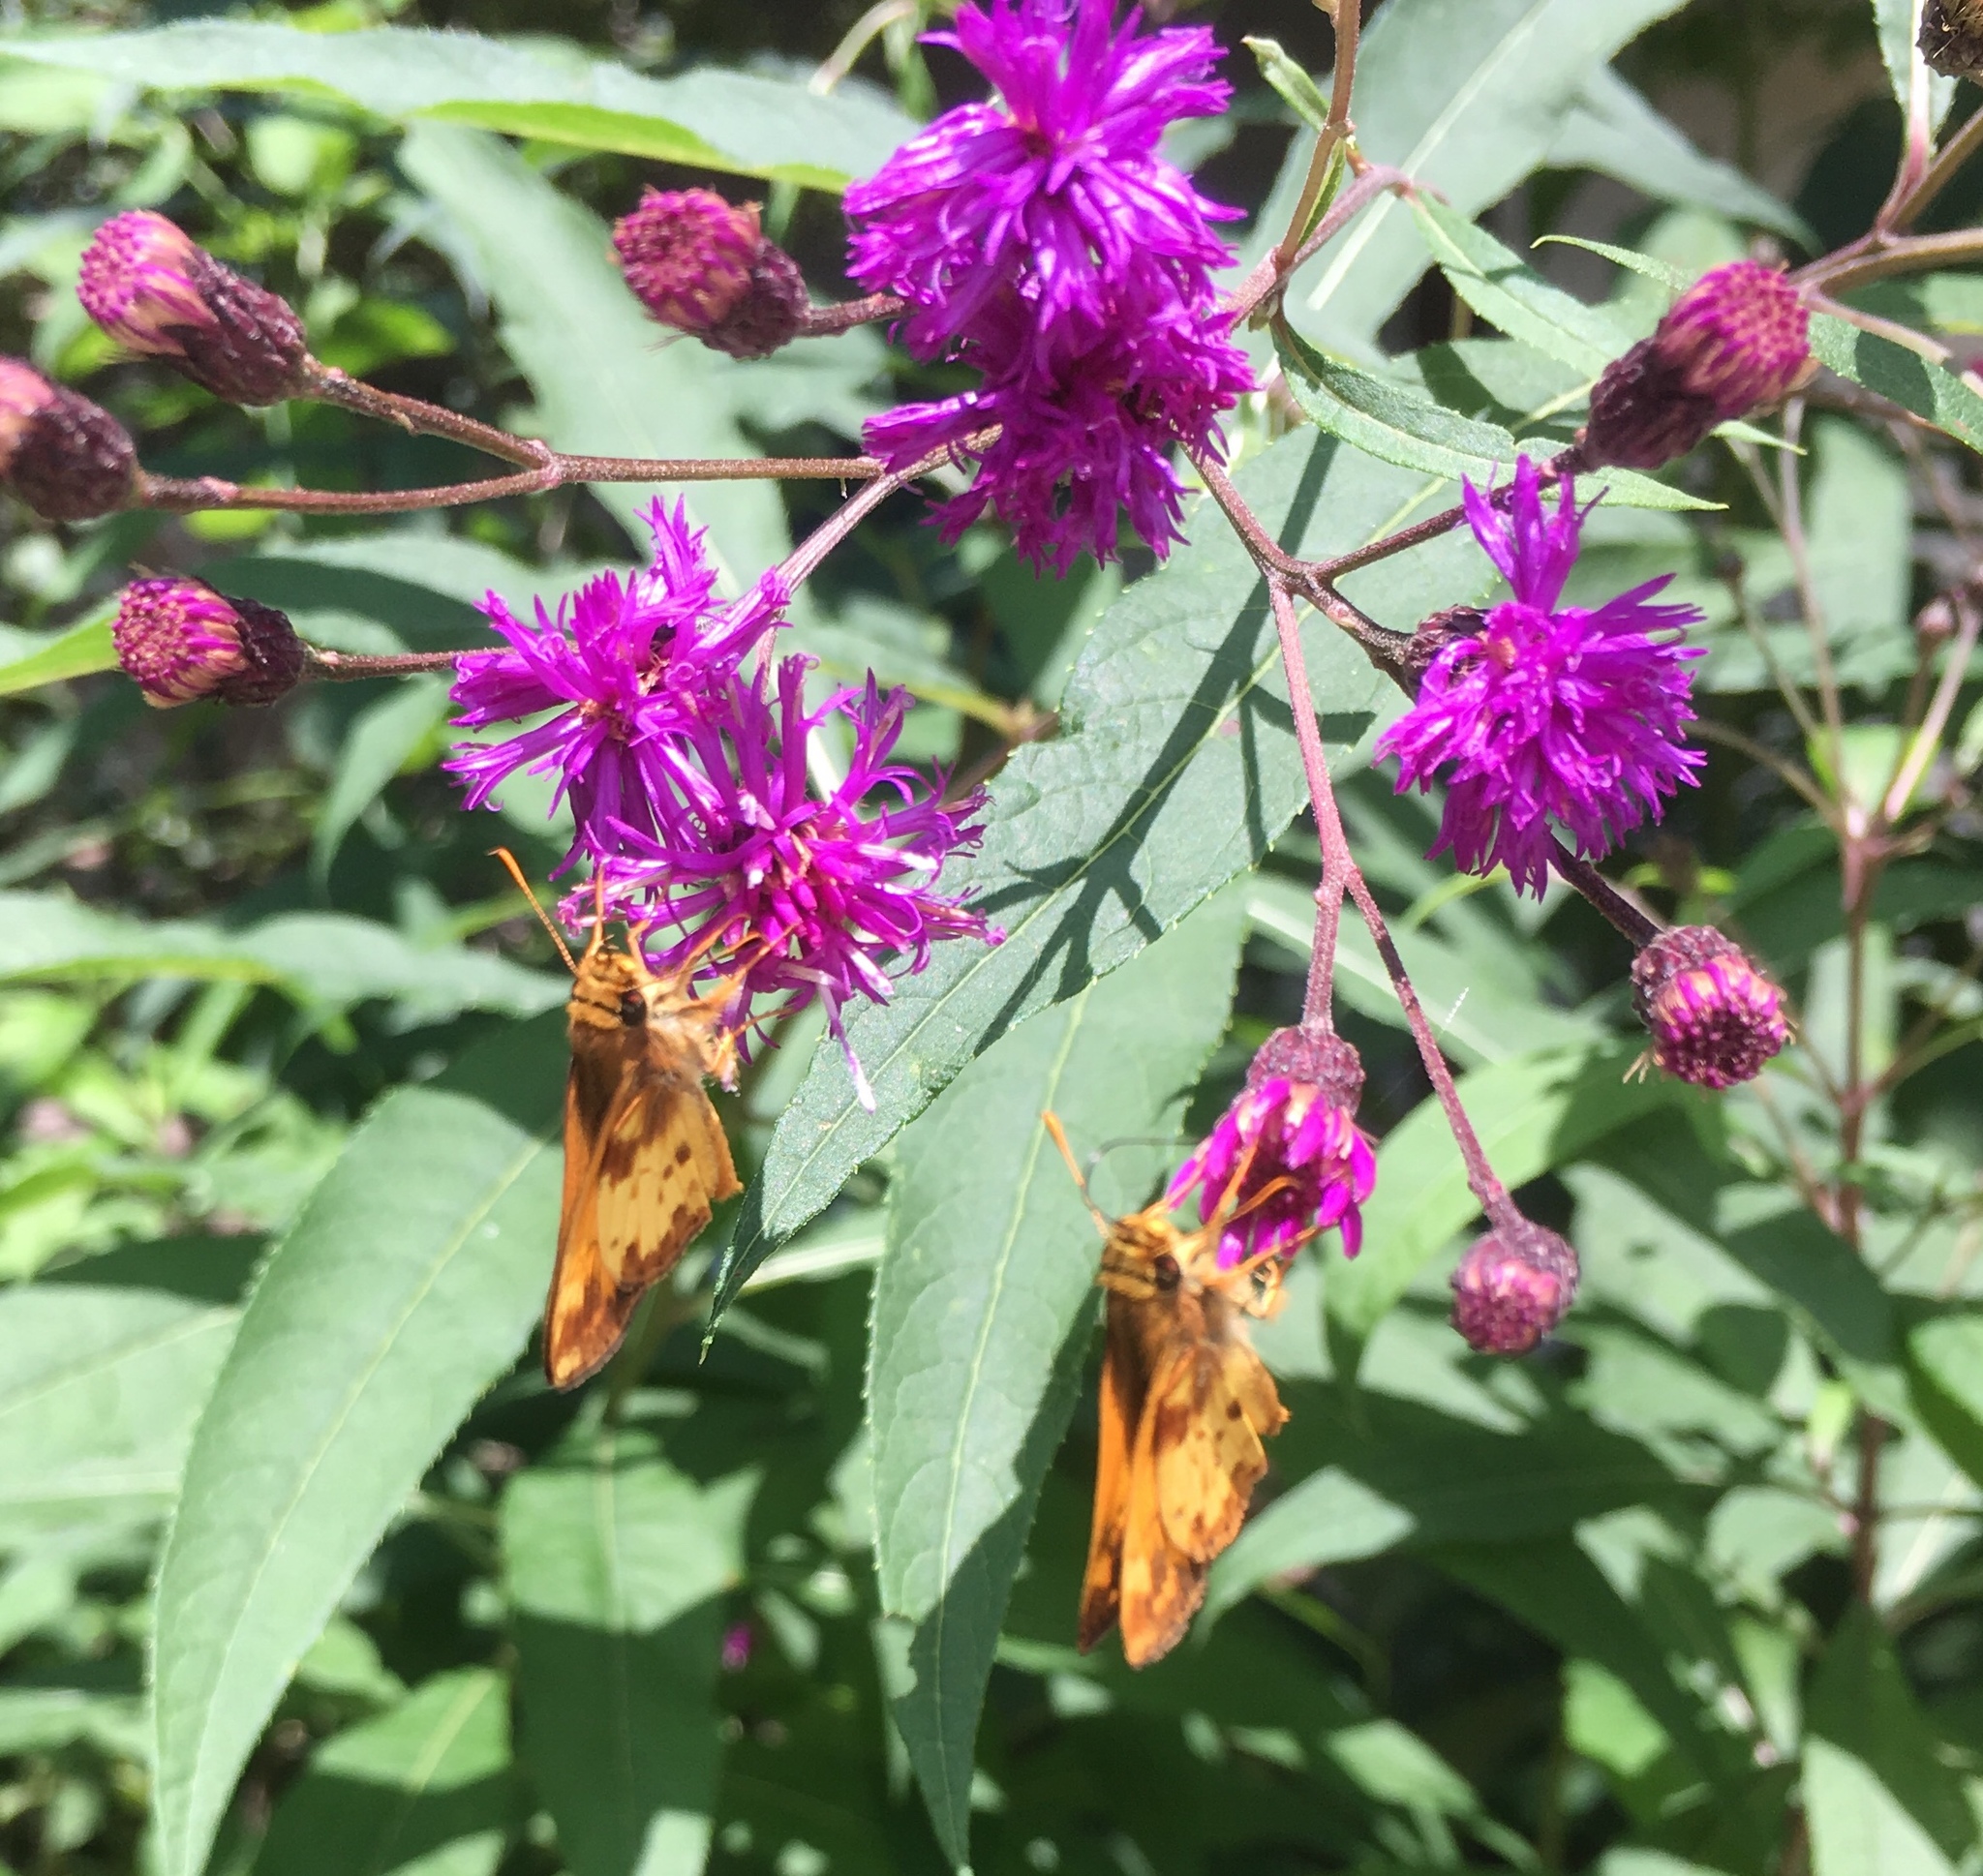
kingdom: Animalia
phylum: Arthropoda
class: Insecta
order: Lepidoptera
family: Hesperiidae
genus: Lon
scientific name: Lon zabulon
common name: Zabulon skipper
